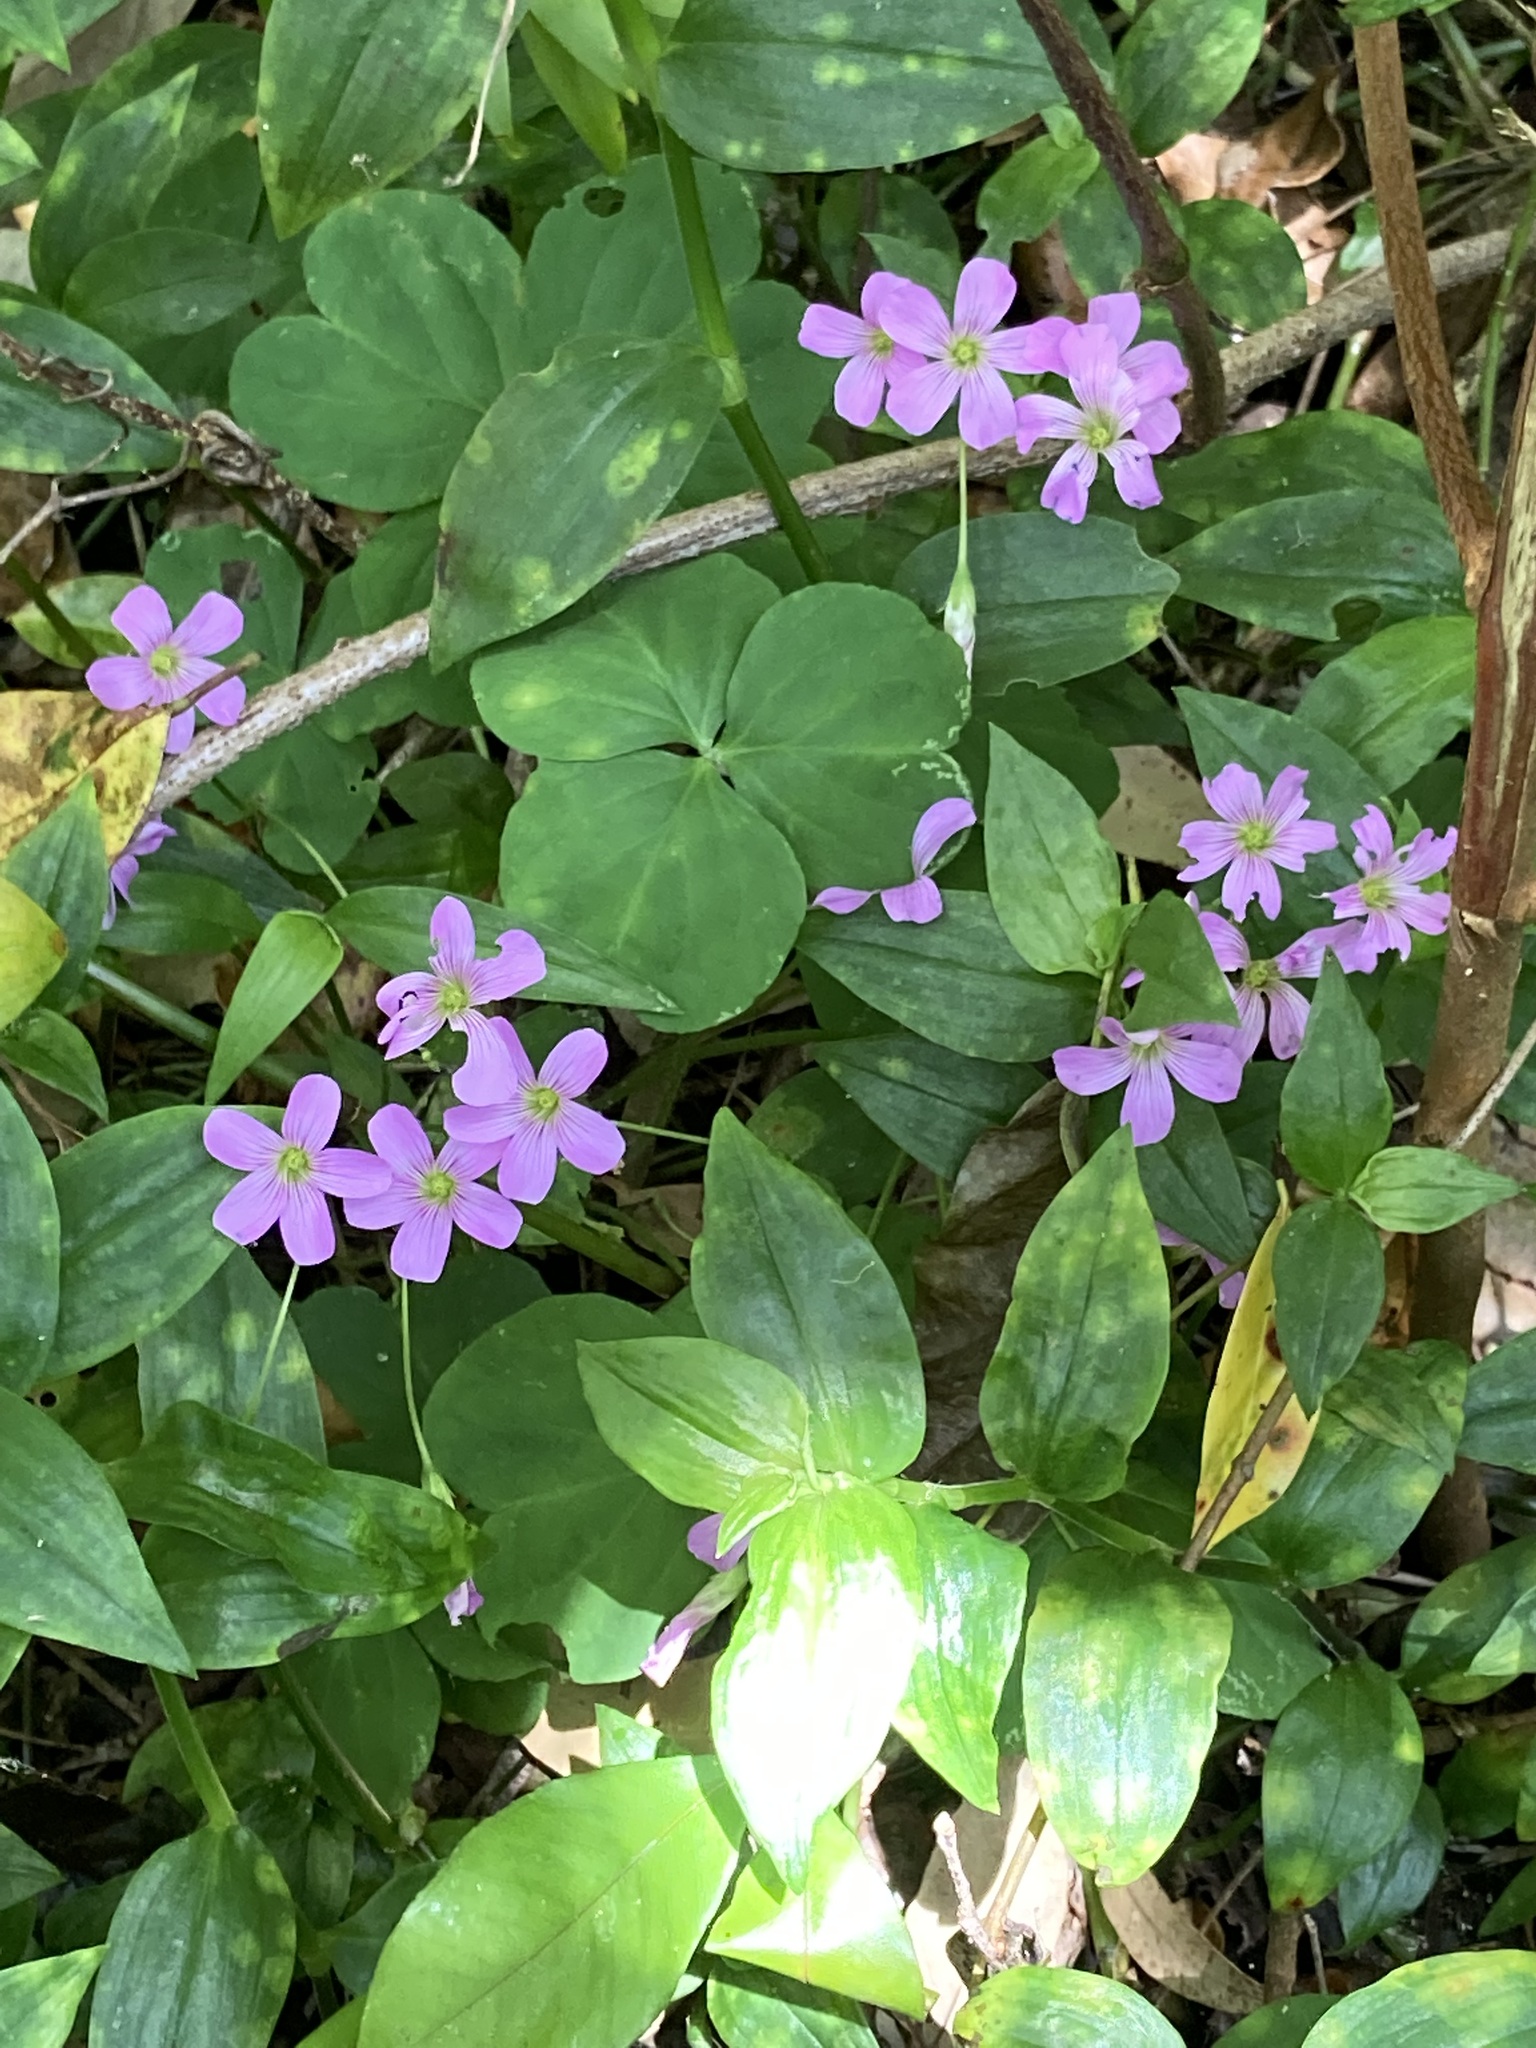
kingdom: Plantae
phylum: Tracheophyta
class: Magnoliopsida
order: Oxalidales
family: Oxalidaceae
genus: Oxalis
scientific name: Oxalis debilis
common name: Large-flowered pink-sorrel
